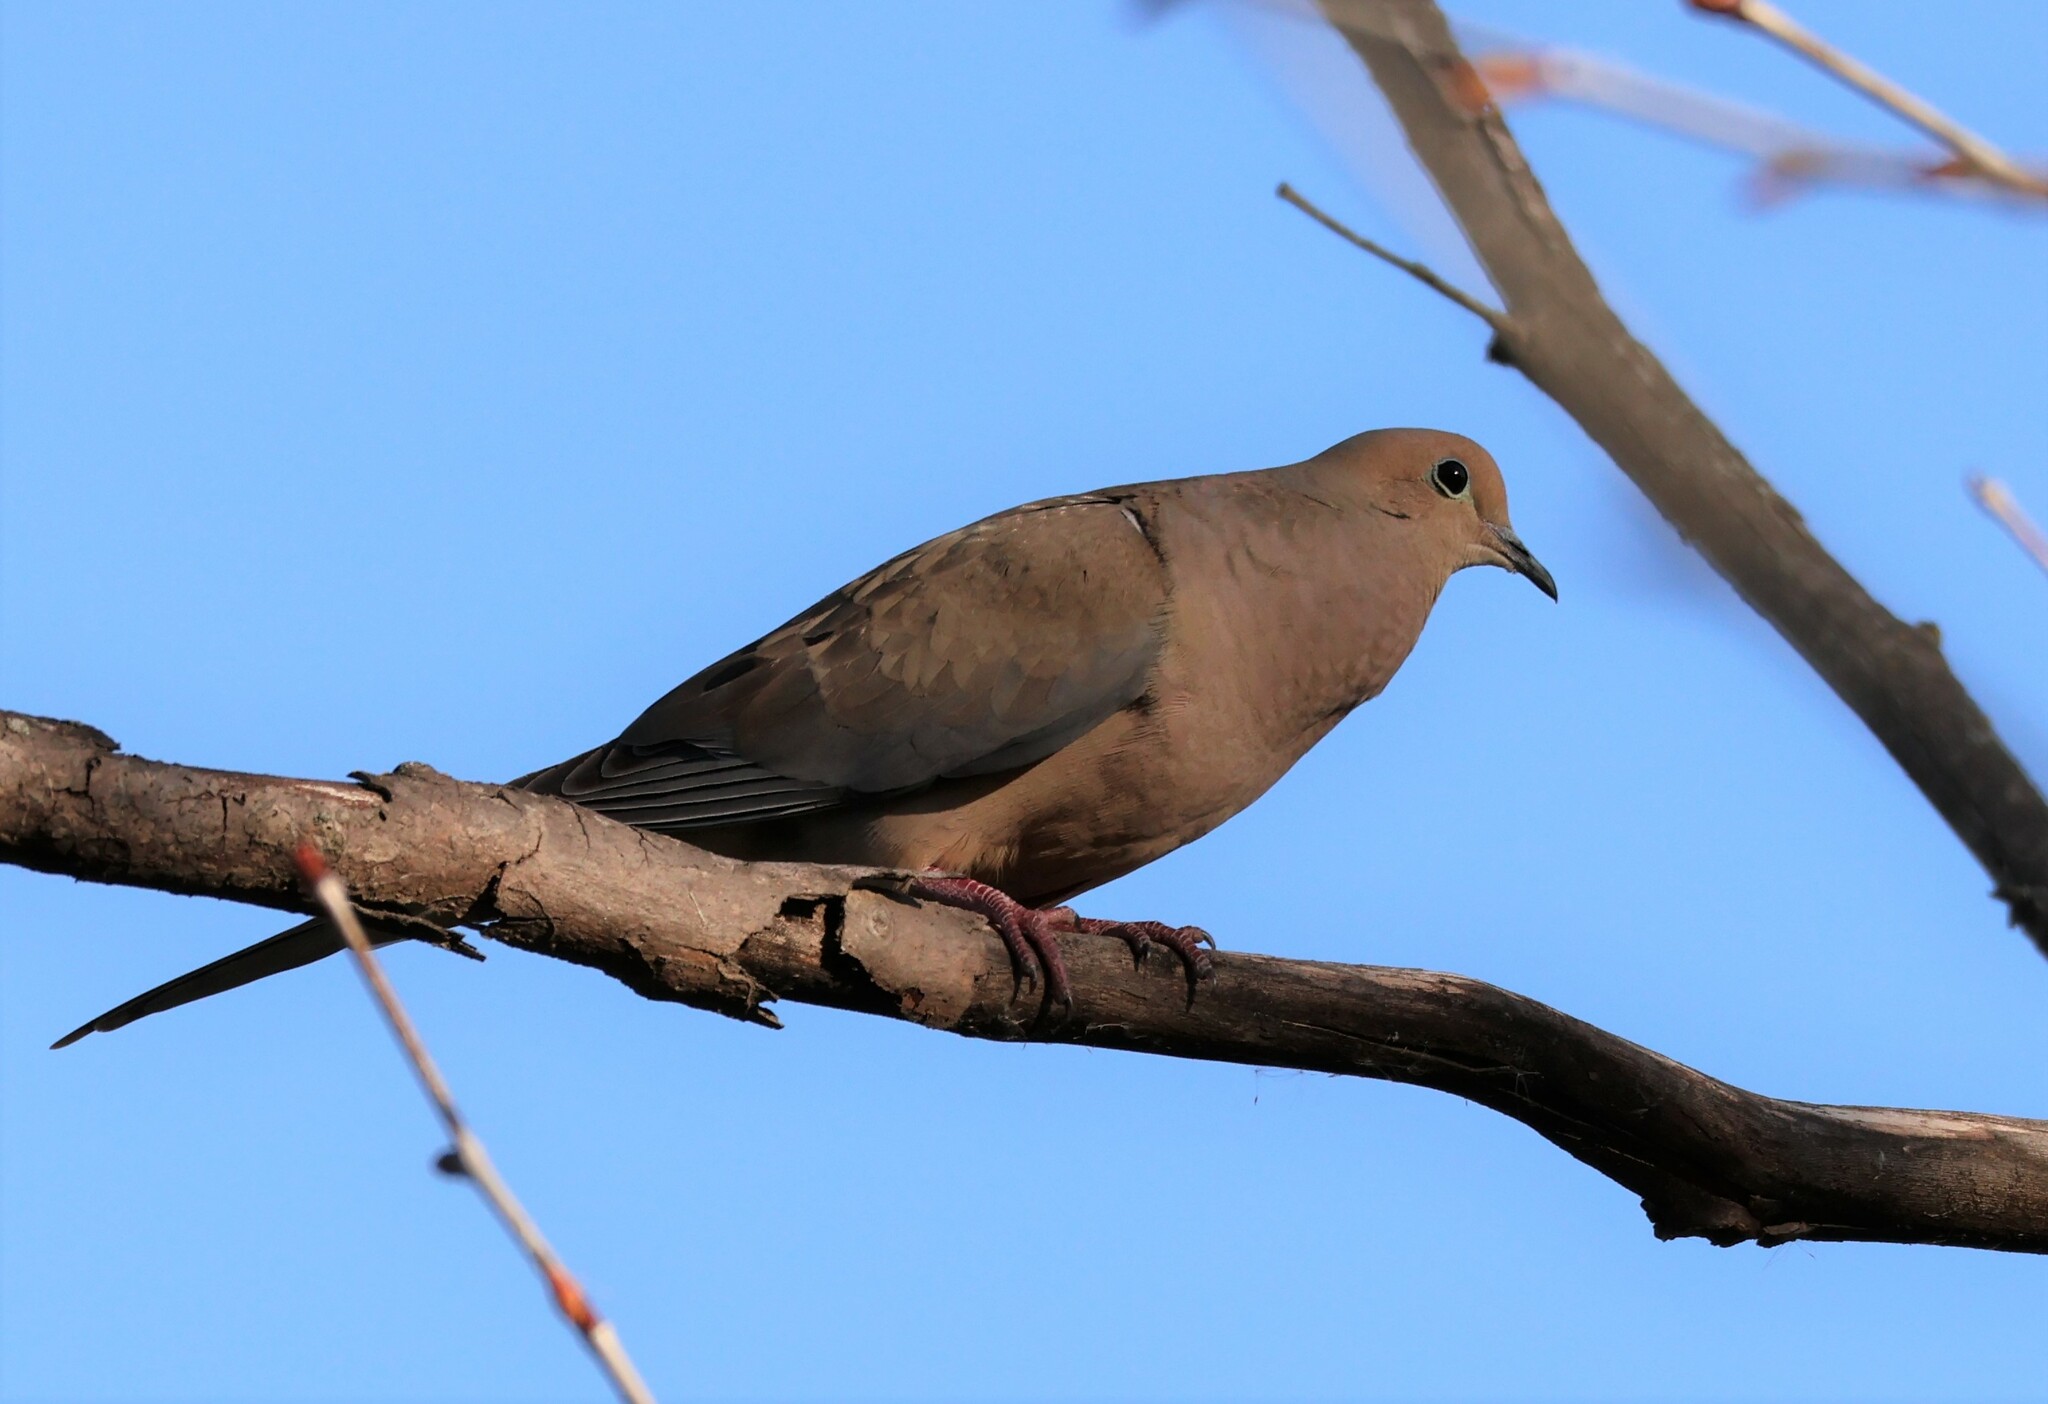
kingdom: Animalia
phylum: Chordata
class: Aves
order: Columbiformes
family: Columbidae
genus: Zenaida
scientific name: Zenaida macroura
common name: Mourning dove
